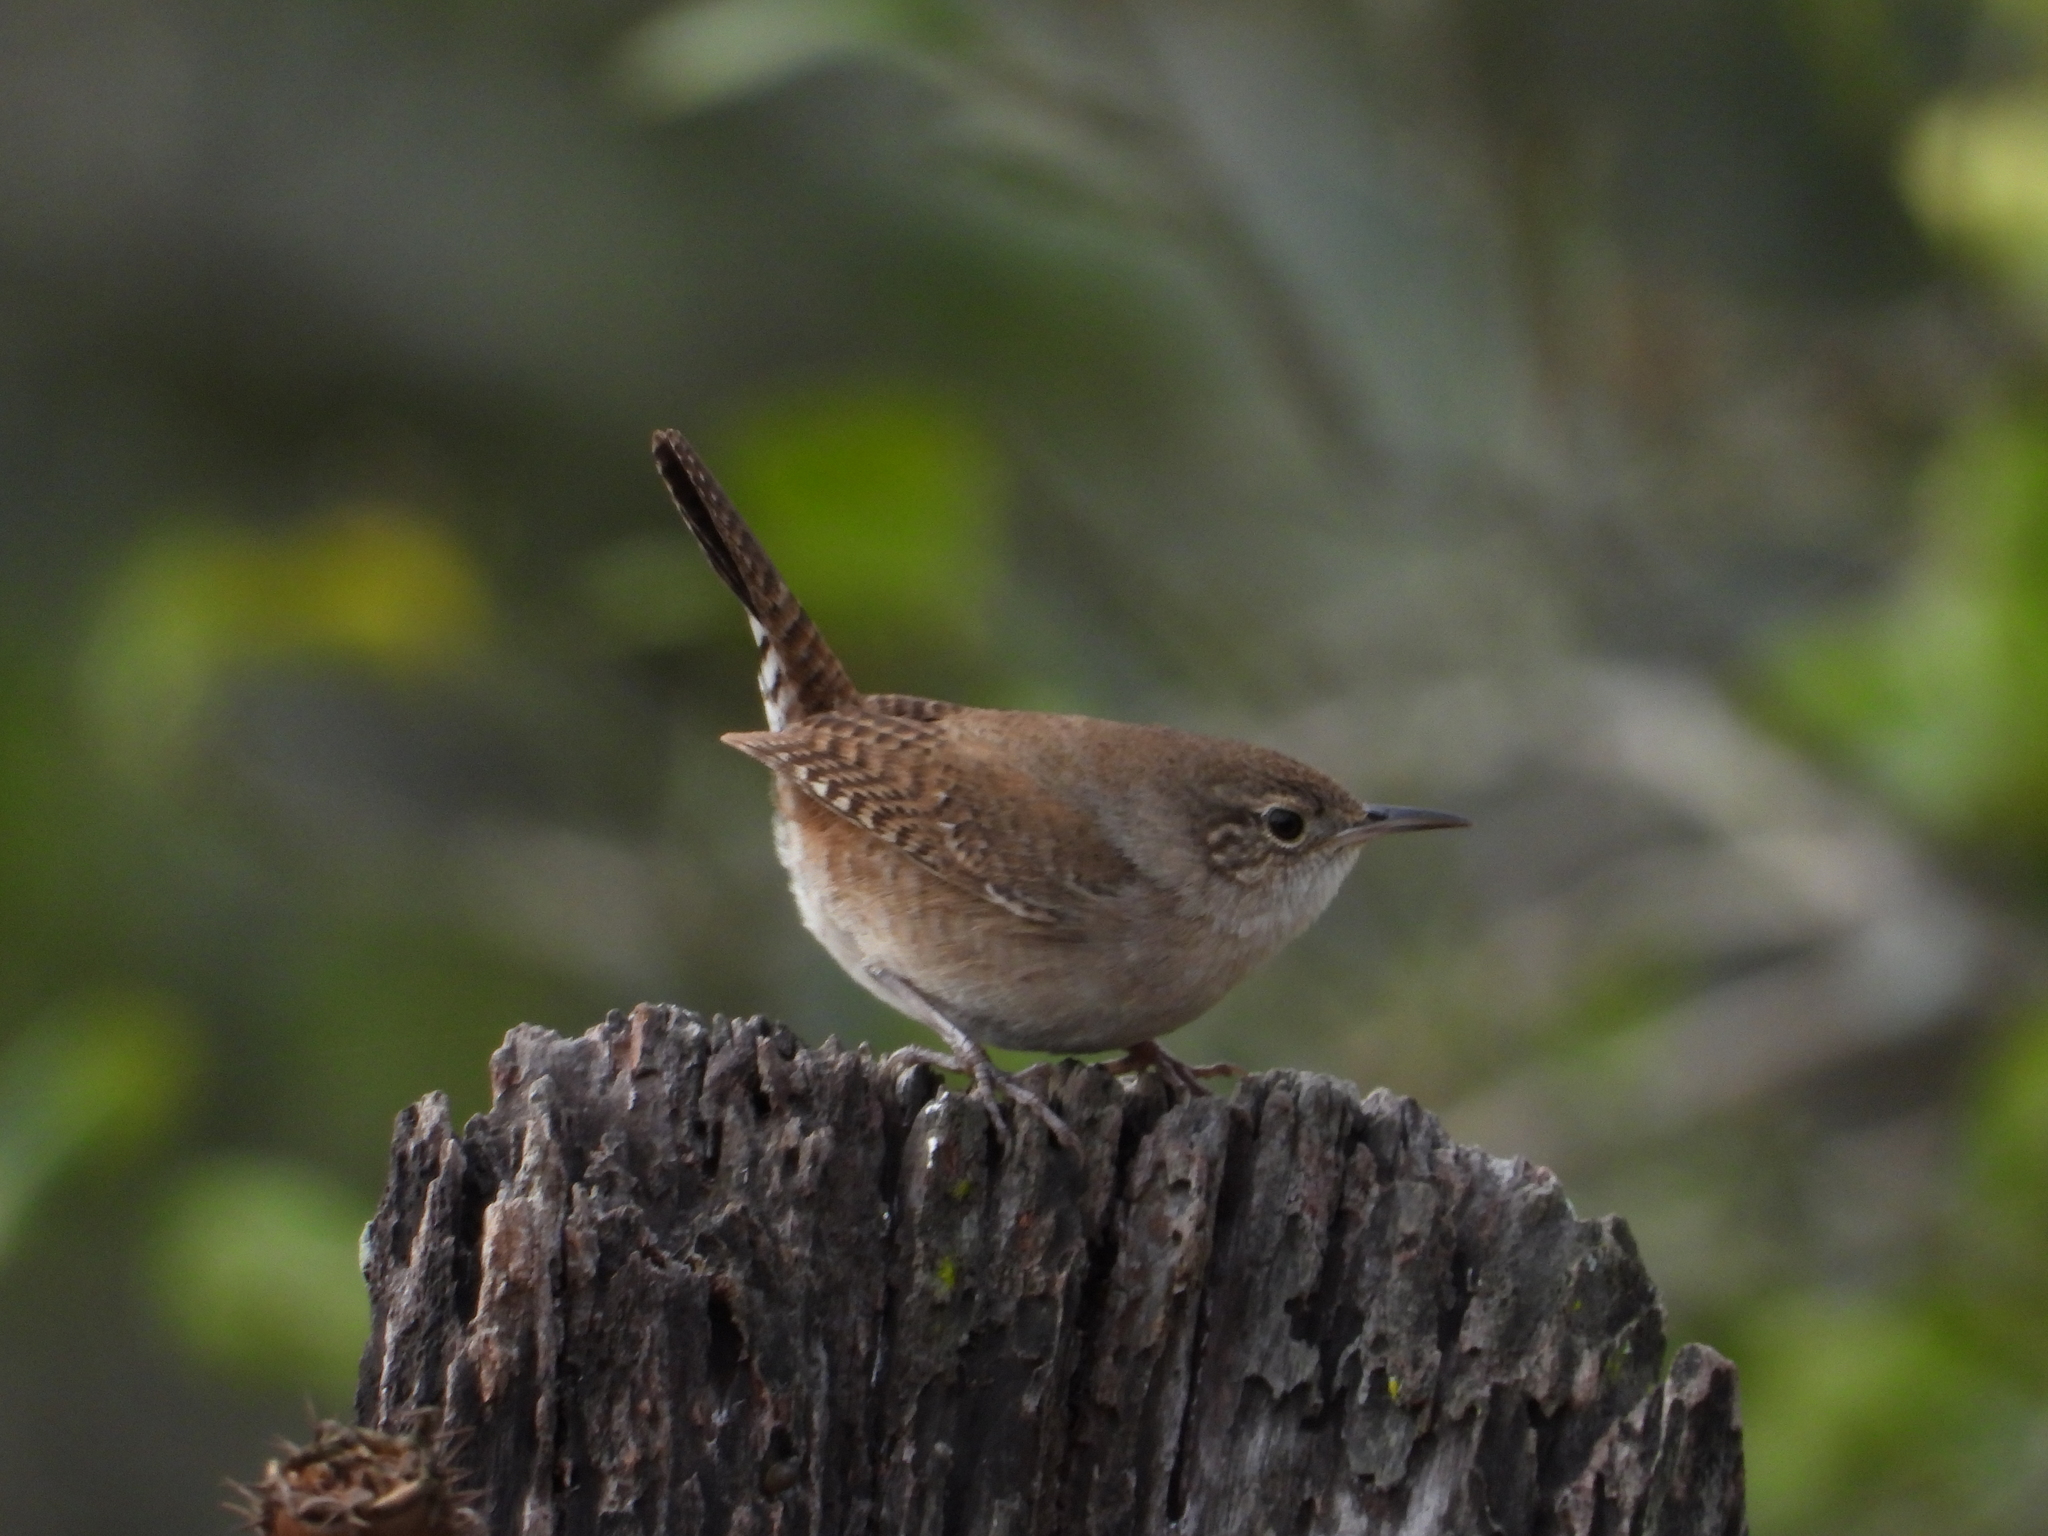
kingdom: Animalia
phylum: Chordata
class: Aves
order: Passeriformes
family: Troglodytidae
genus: Troglodytes
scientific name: Troglodytes aedon
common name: House wren
